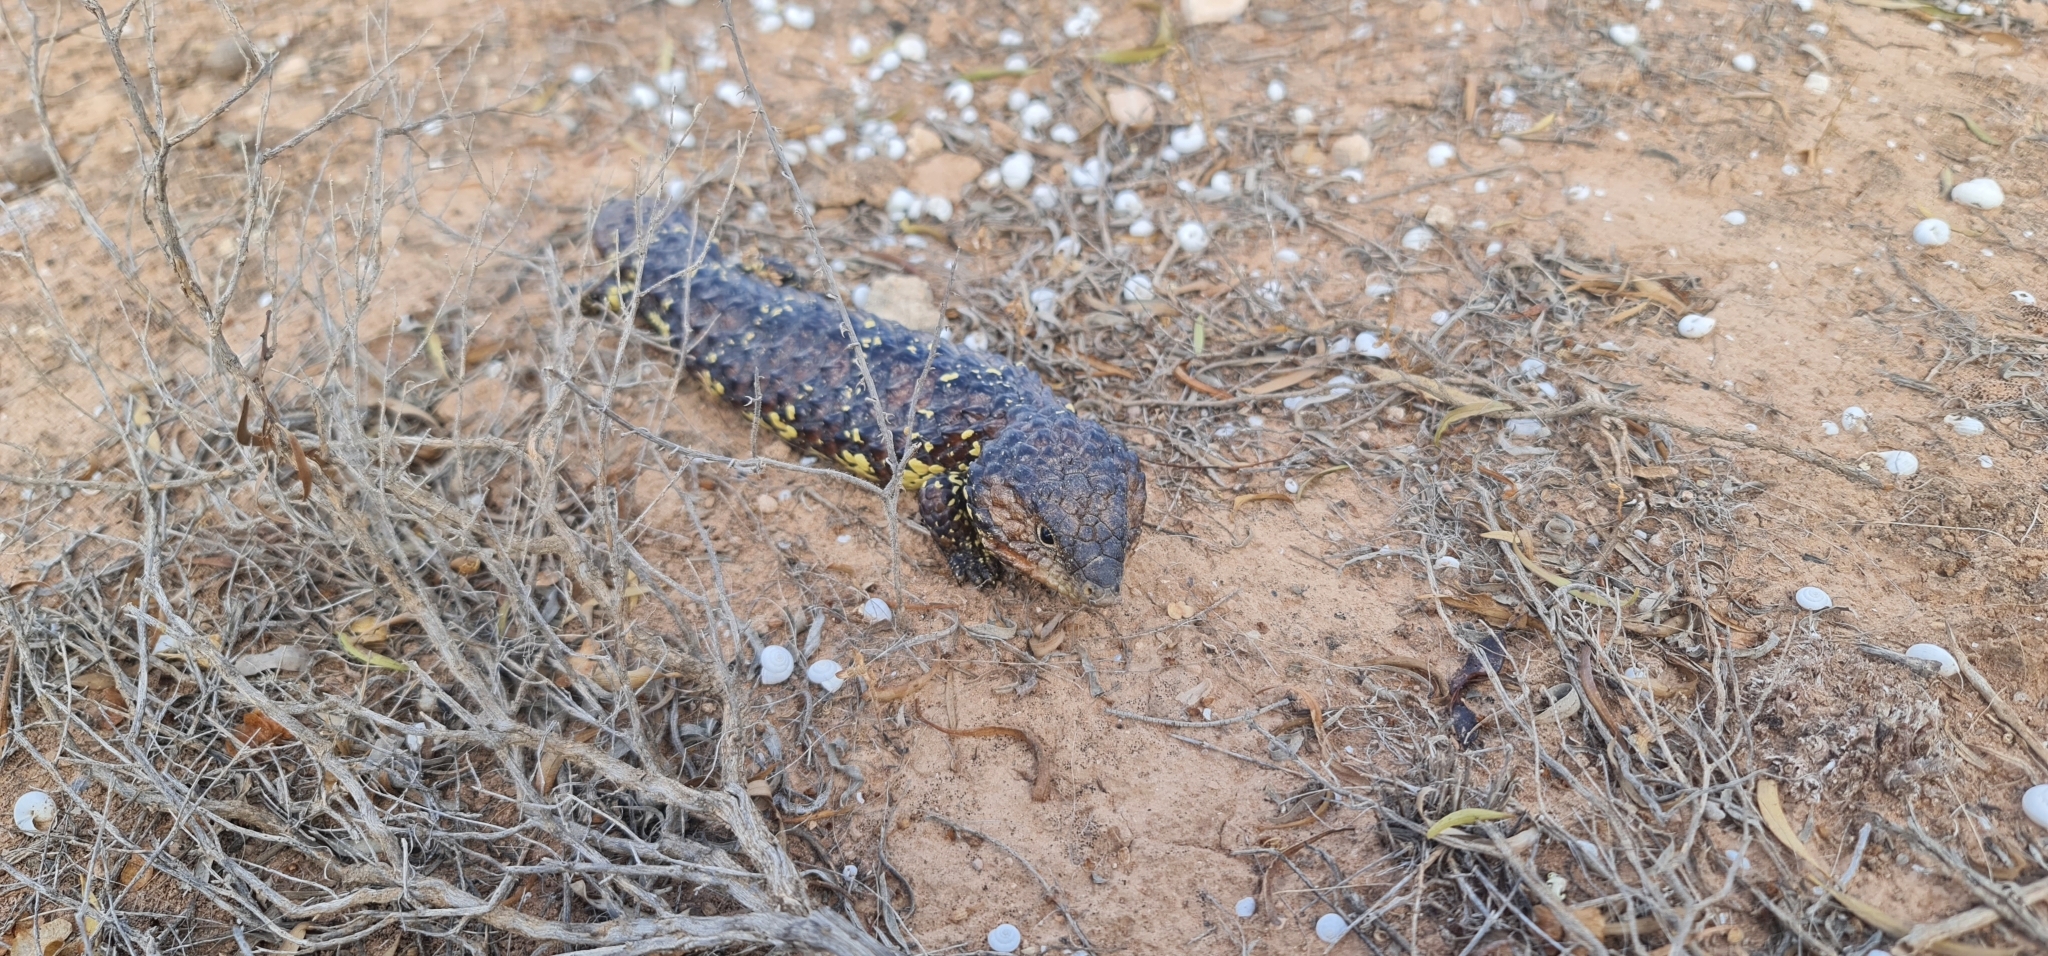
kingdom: Animalia
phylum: Chordata
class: Squamata
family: Scincidae
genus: Tiliqua
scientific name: Tiliqua rugosa
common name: Pinecone lizard
